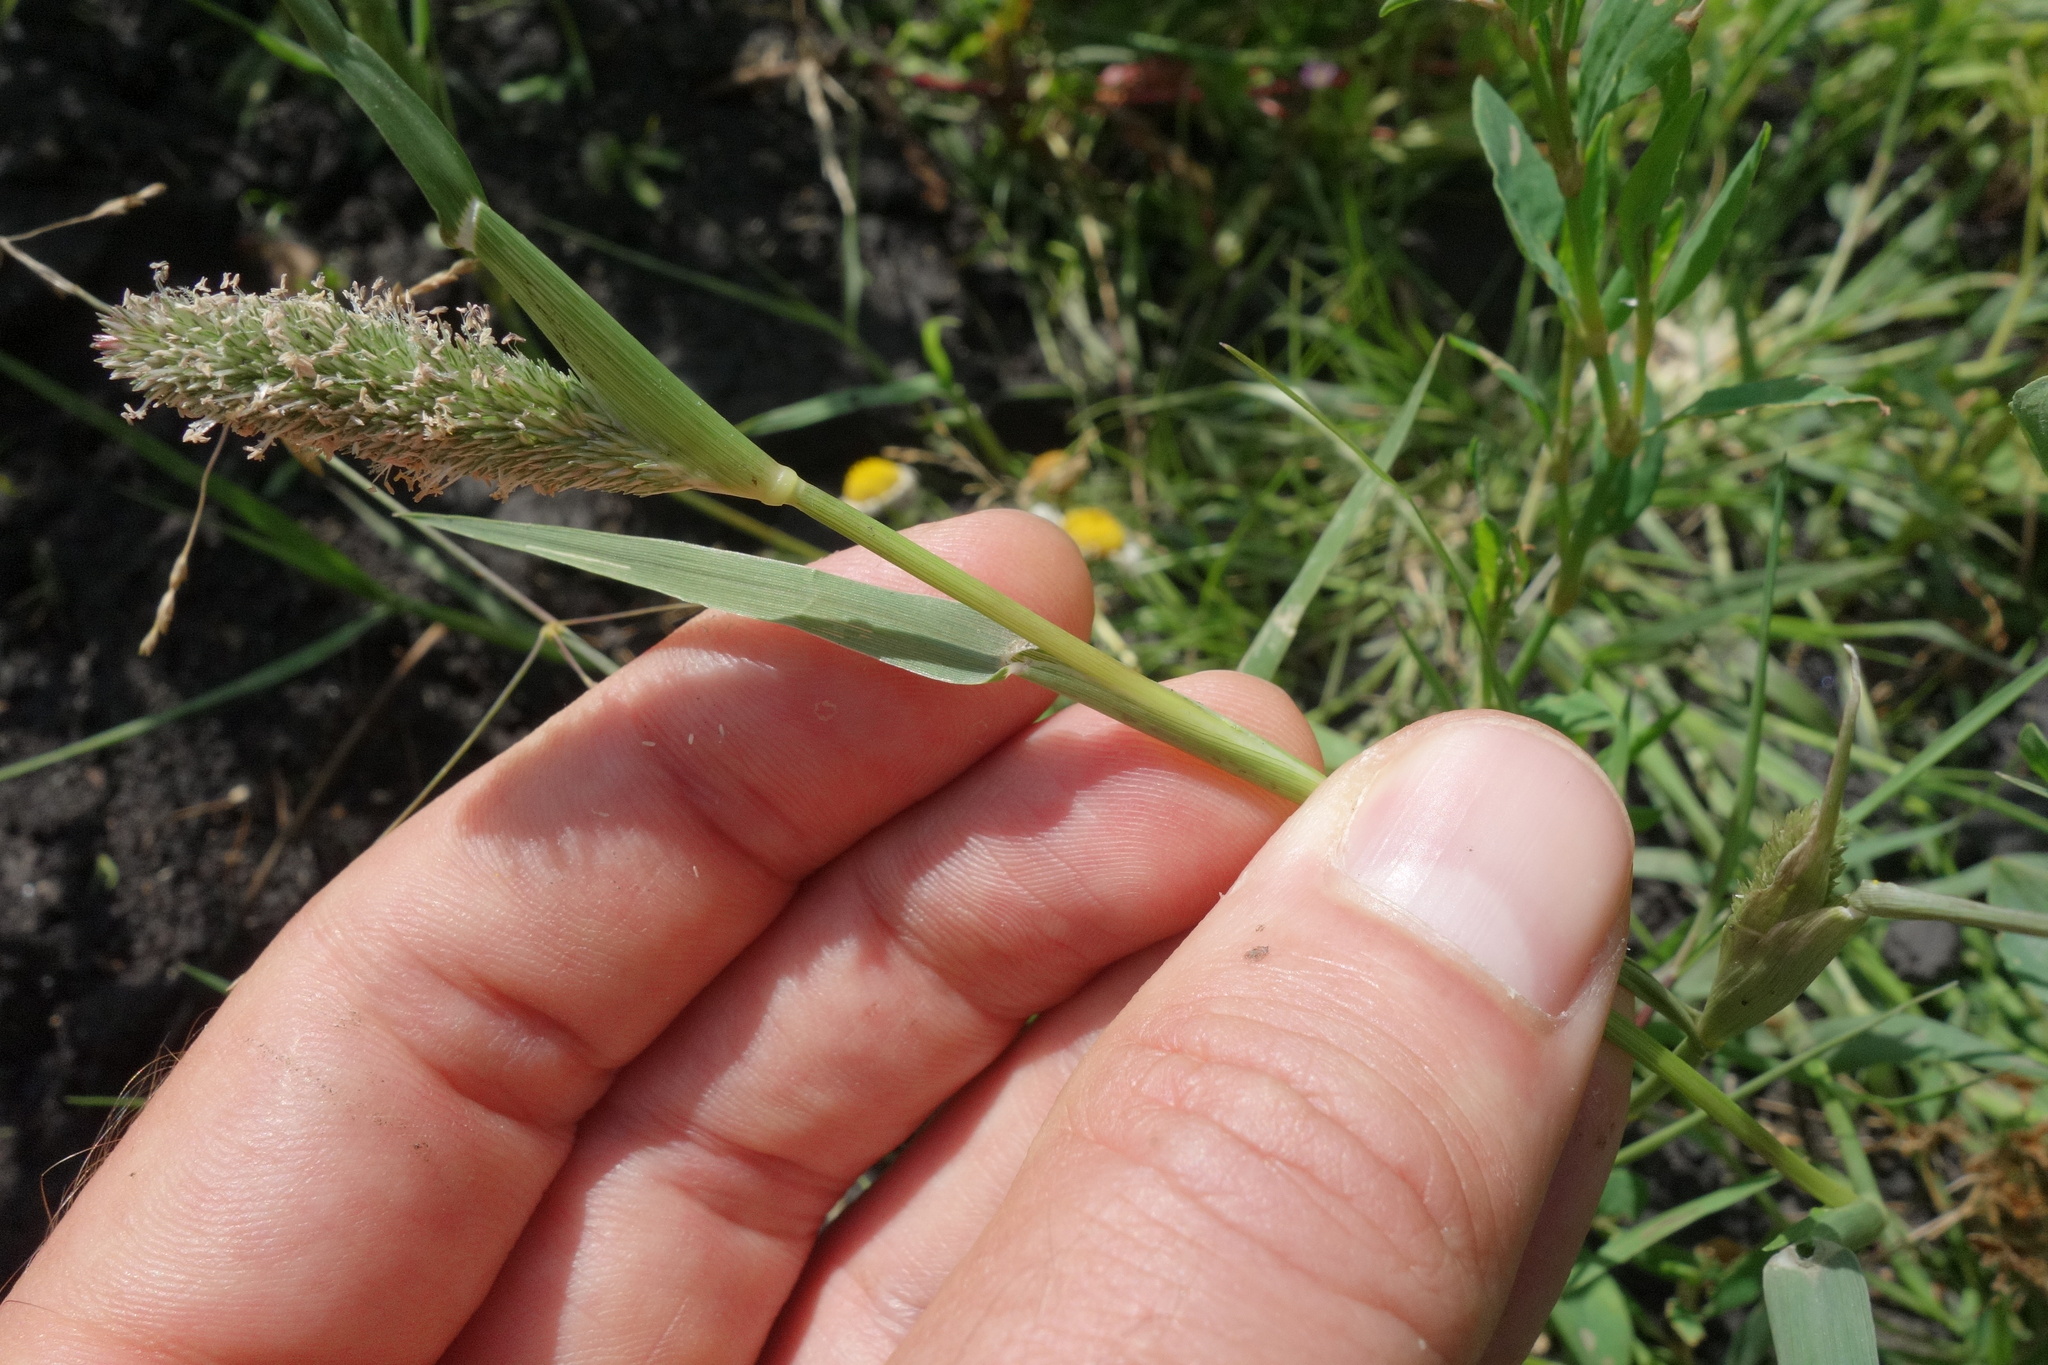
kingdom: Plantae
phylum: Tracheophyta
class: Liliopsida
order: Poales
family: Poaceae
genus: Sporobolus
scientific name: Sporobolus schoenoides
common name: Rush-like timothy
